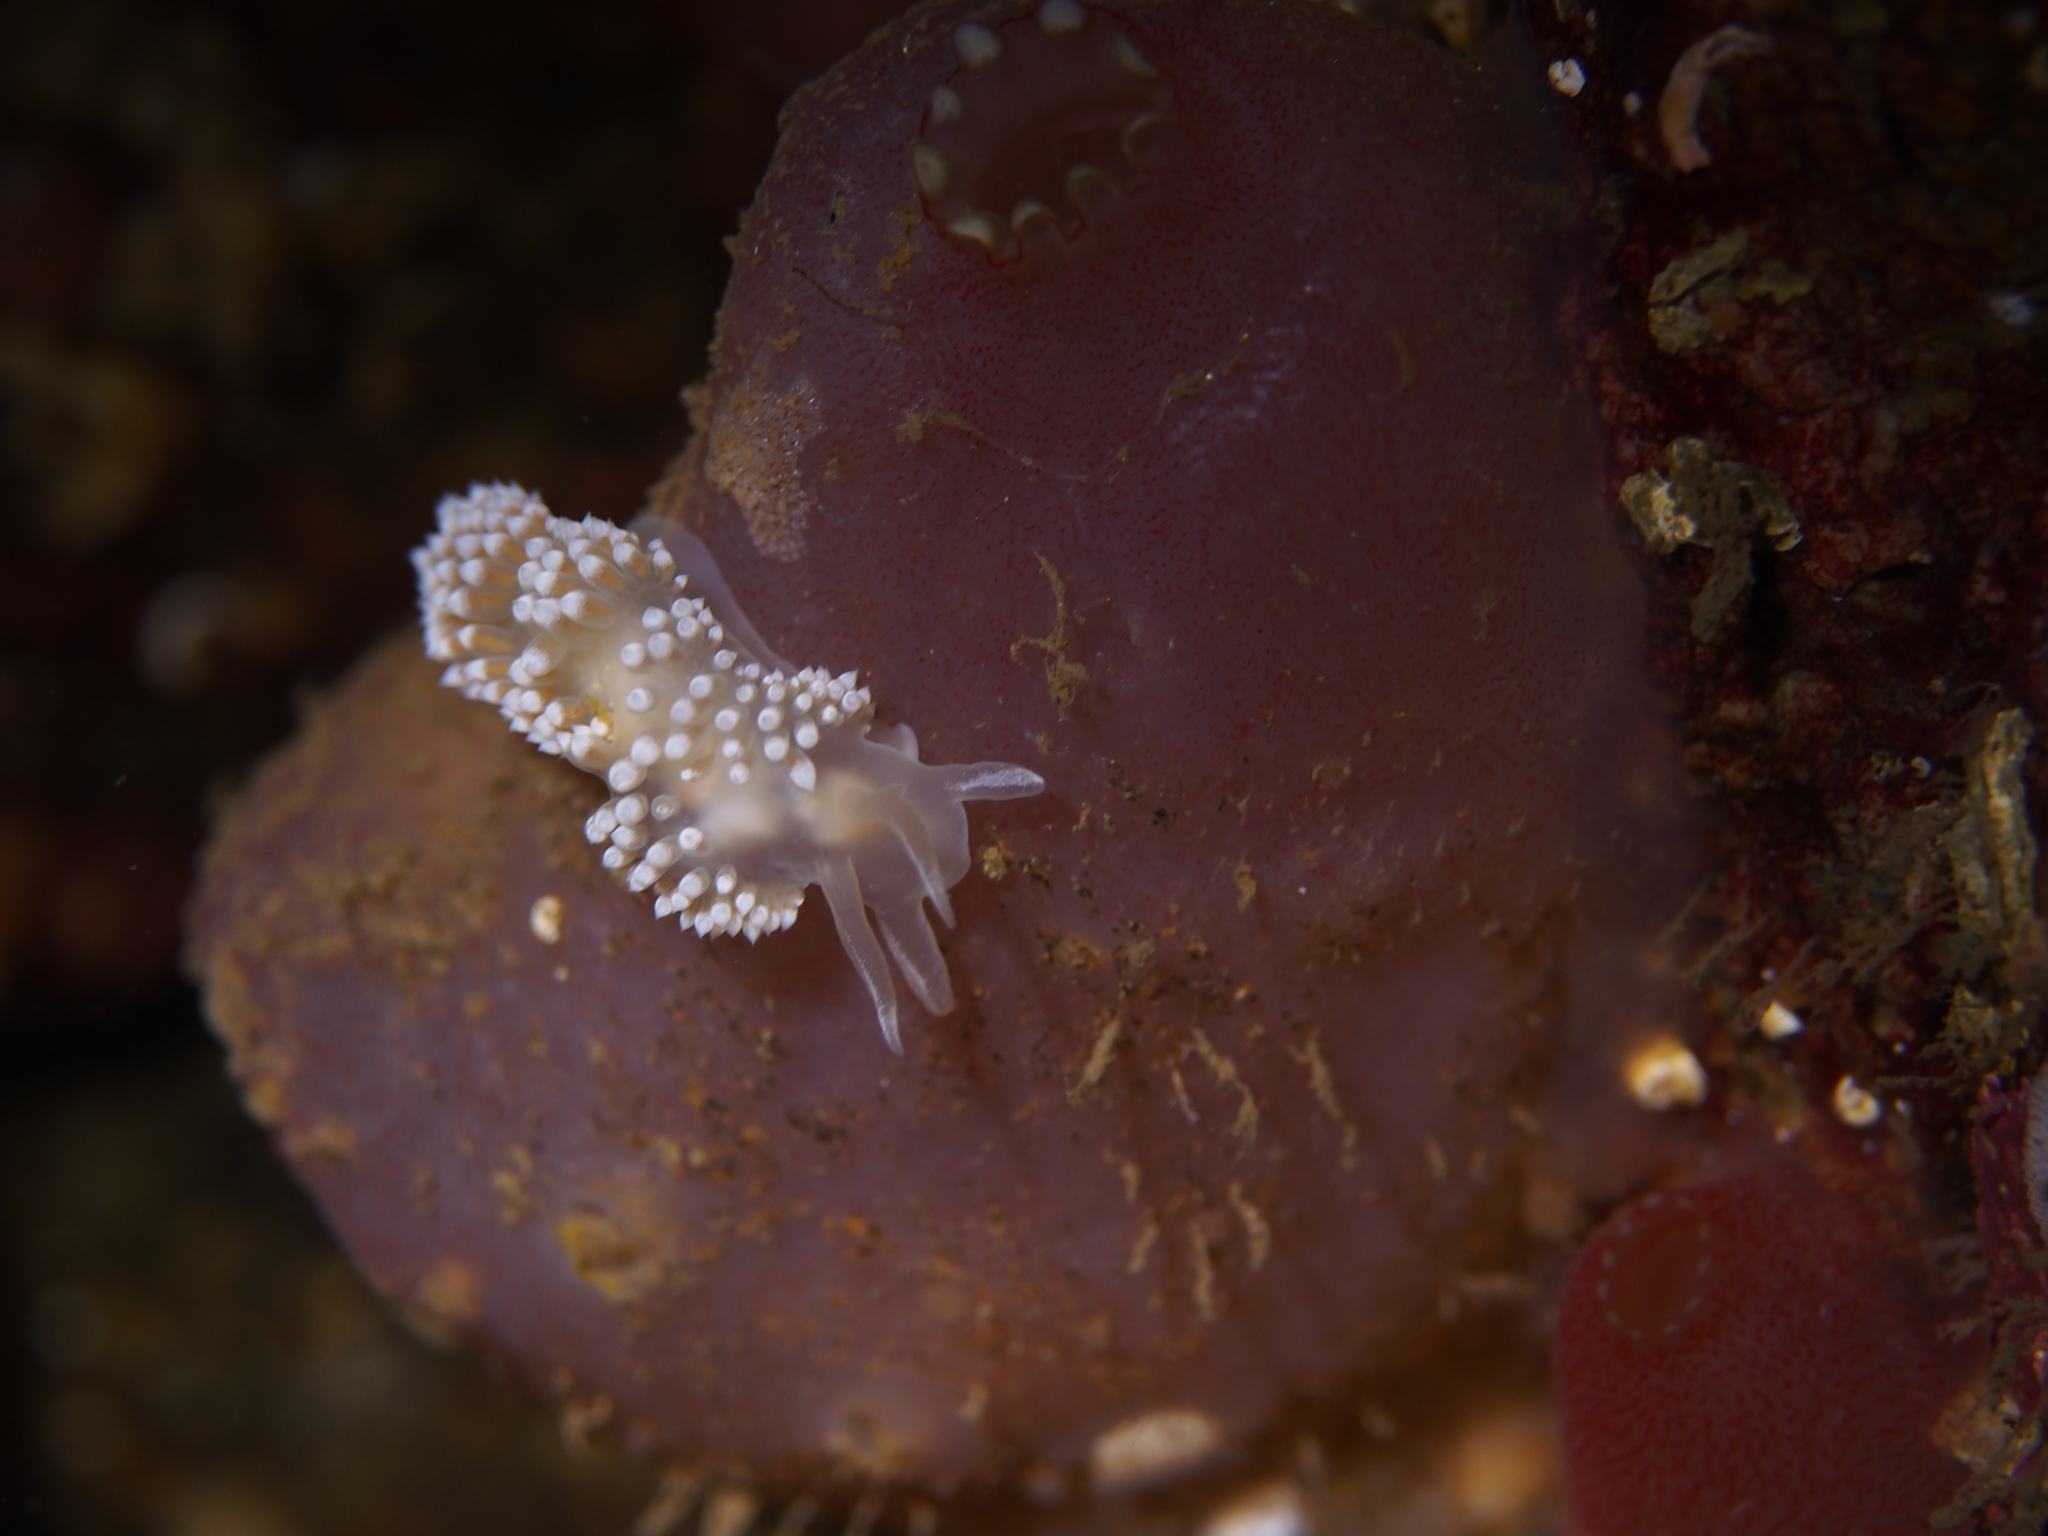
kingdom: Animalia
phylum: Mollusca
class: Gastropoda
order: Nudibranchia
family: Coryphellidae
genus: Coryphella
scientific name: Coryphella verrucosa
